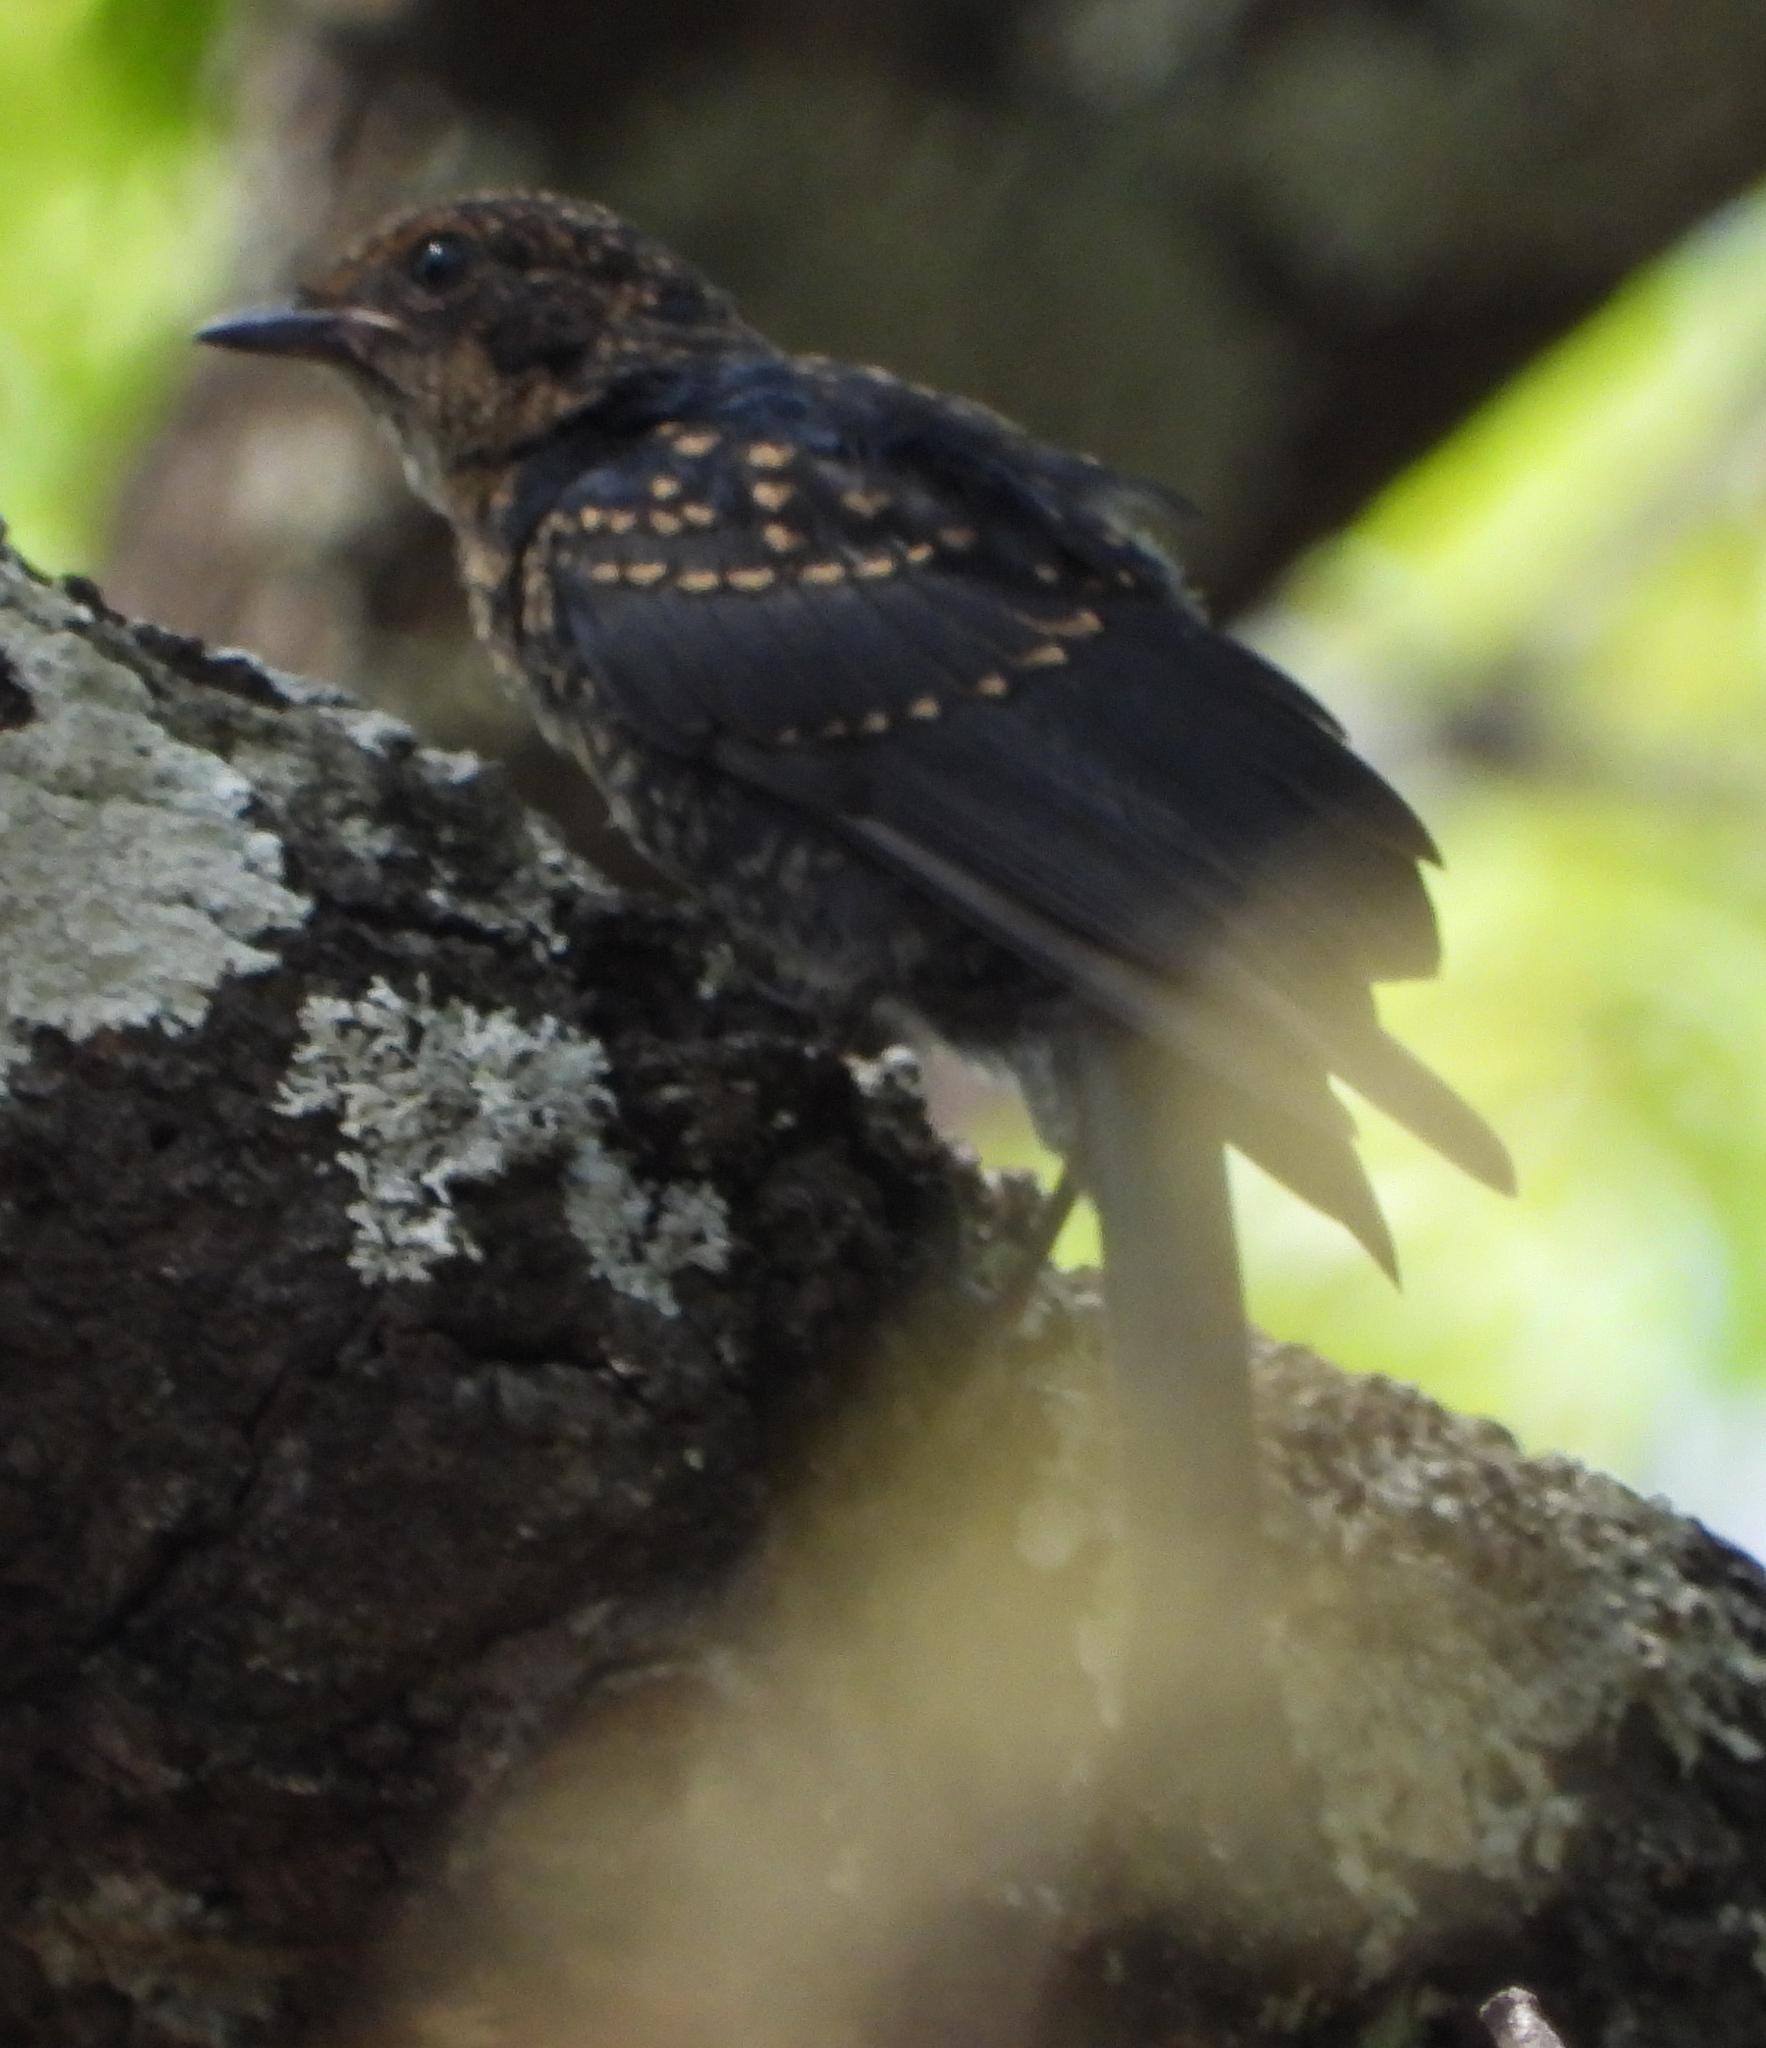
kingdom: Animalia
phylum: Chordata
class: Aves
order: Passeriformes
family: Muscicapidae
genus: Melaenornis
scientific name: Melaenornis pammelaina
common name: Southern black flycatcher
